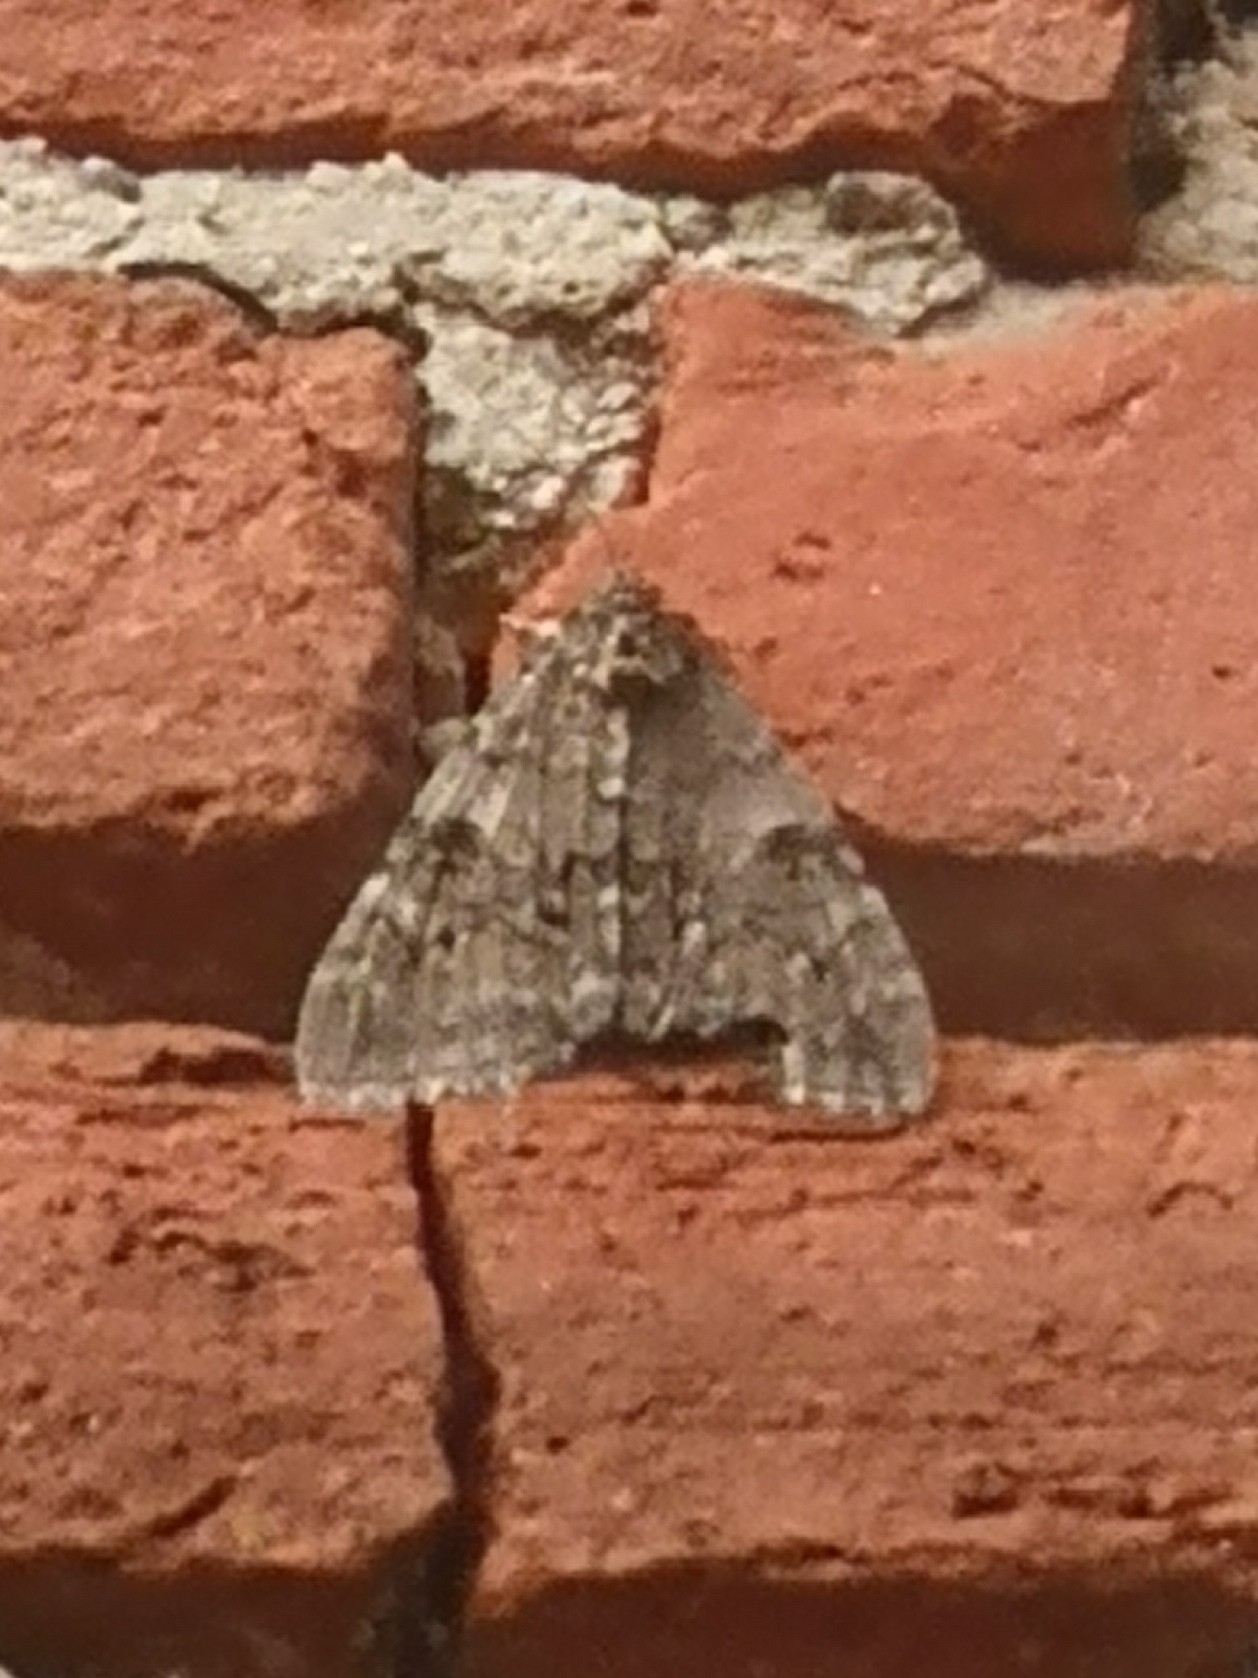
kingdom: Animalia
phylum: Arthropoda
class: Insecta
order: Lepidoptera
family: Erebidae
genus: Catocala
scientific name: Catocala nupta
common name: Red underwing
